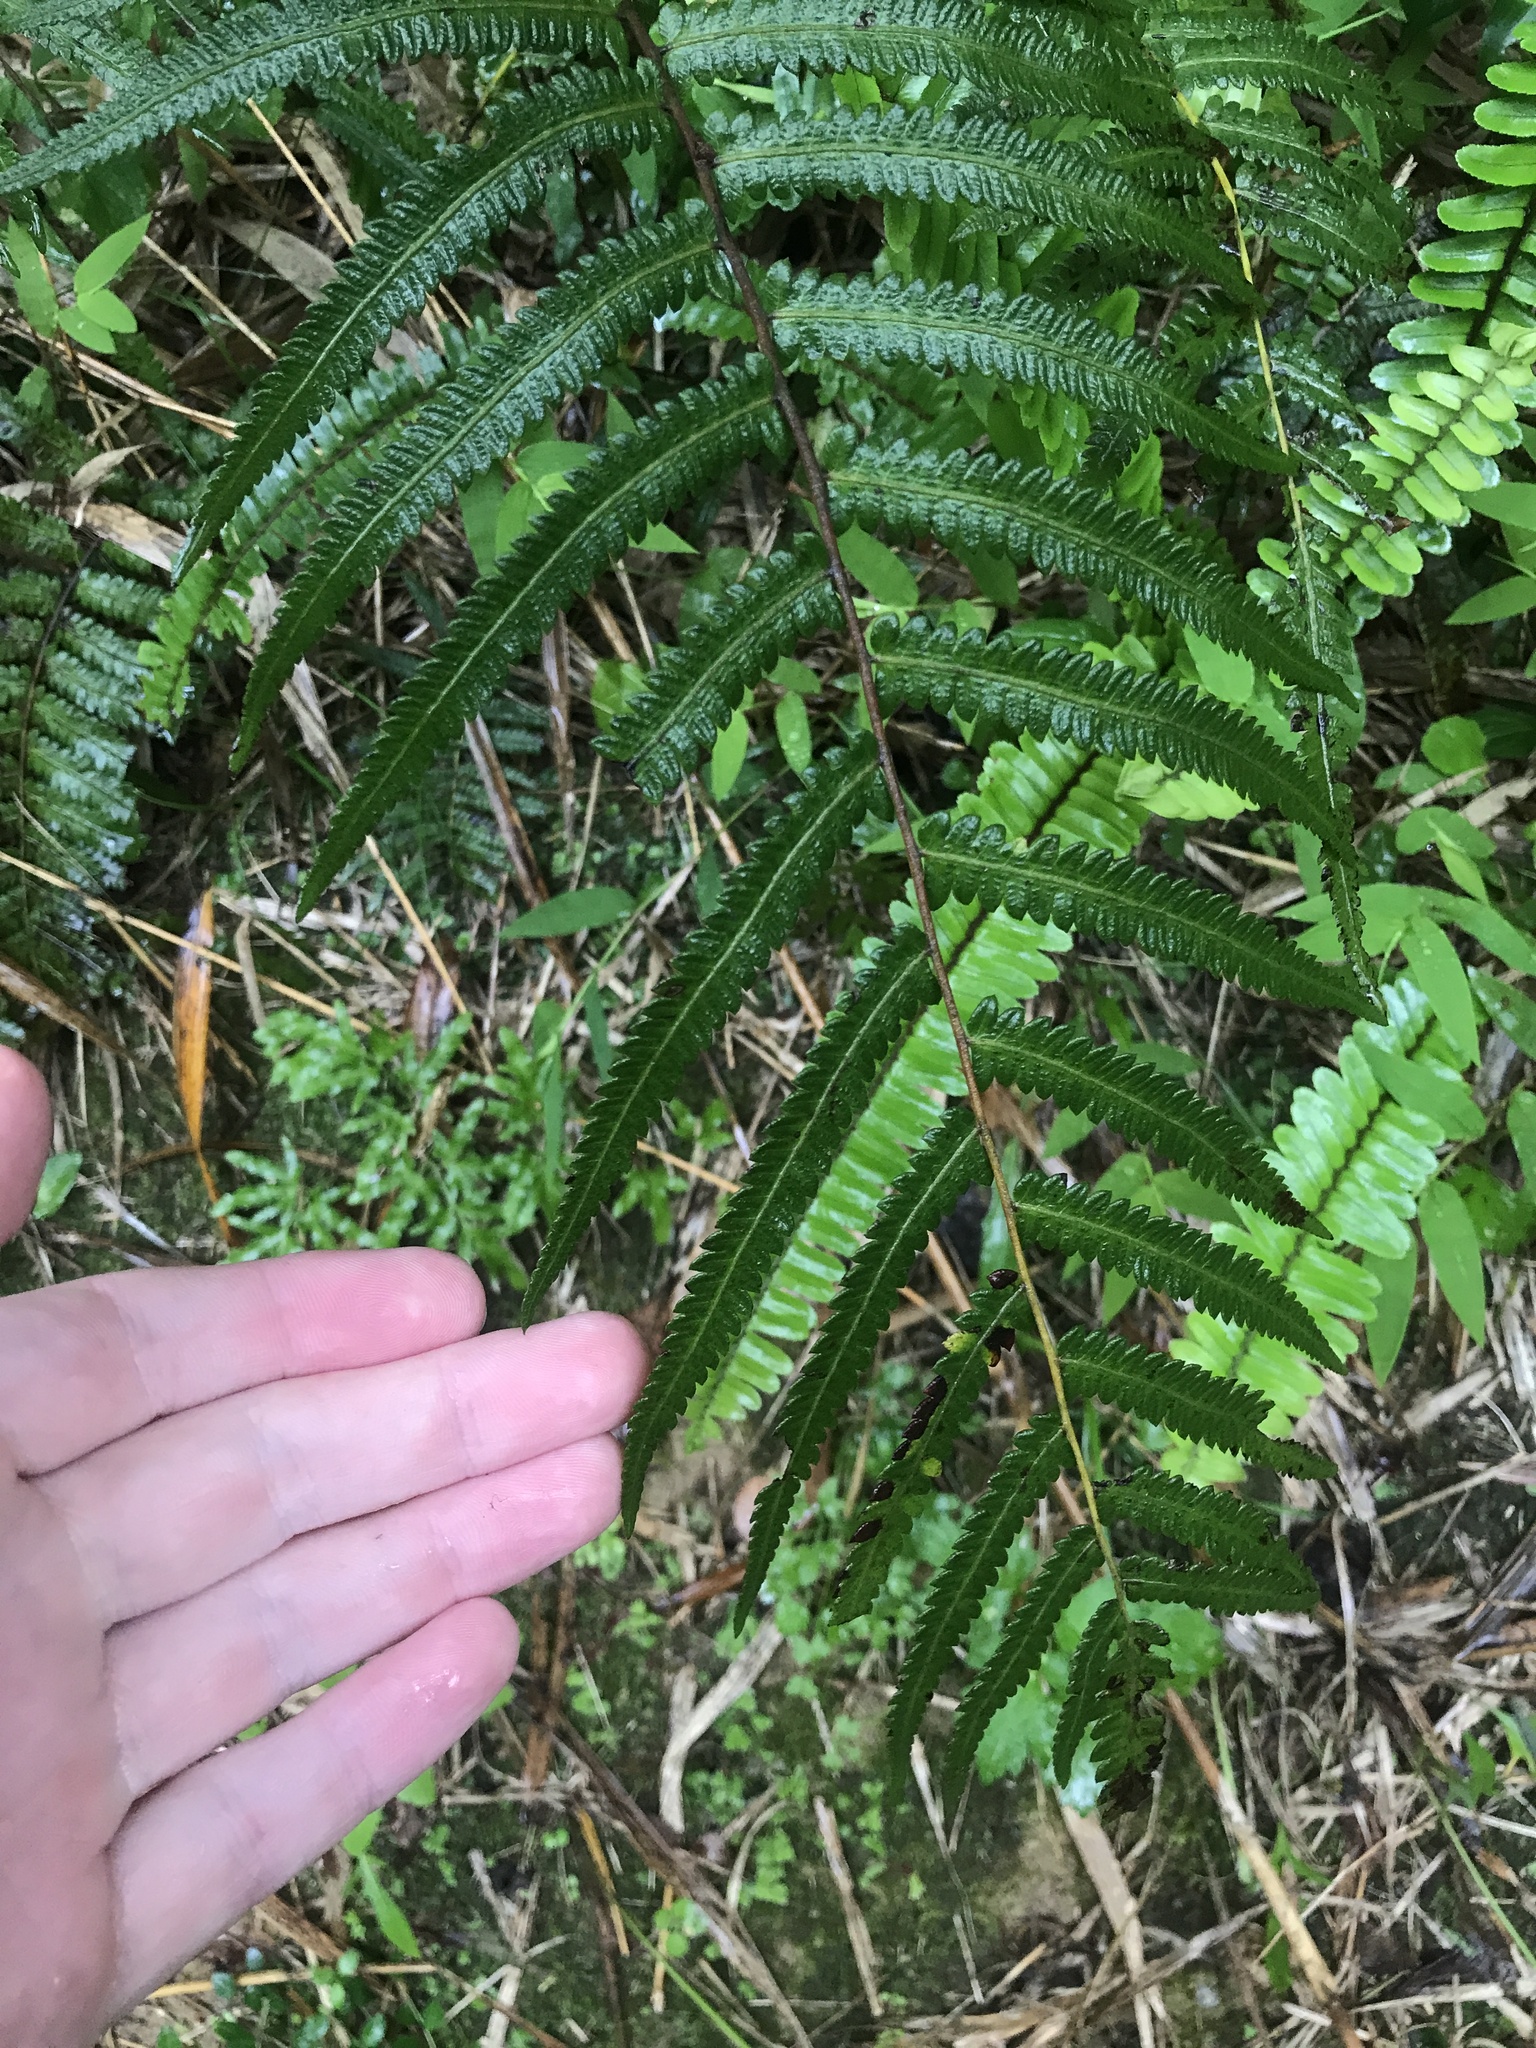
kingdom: Plantae
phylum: Tracheophyta
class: Polypodiopsida
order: Polypodiales
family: Thelypteridaceae
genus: Christella
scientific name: Christella acuminata
